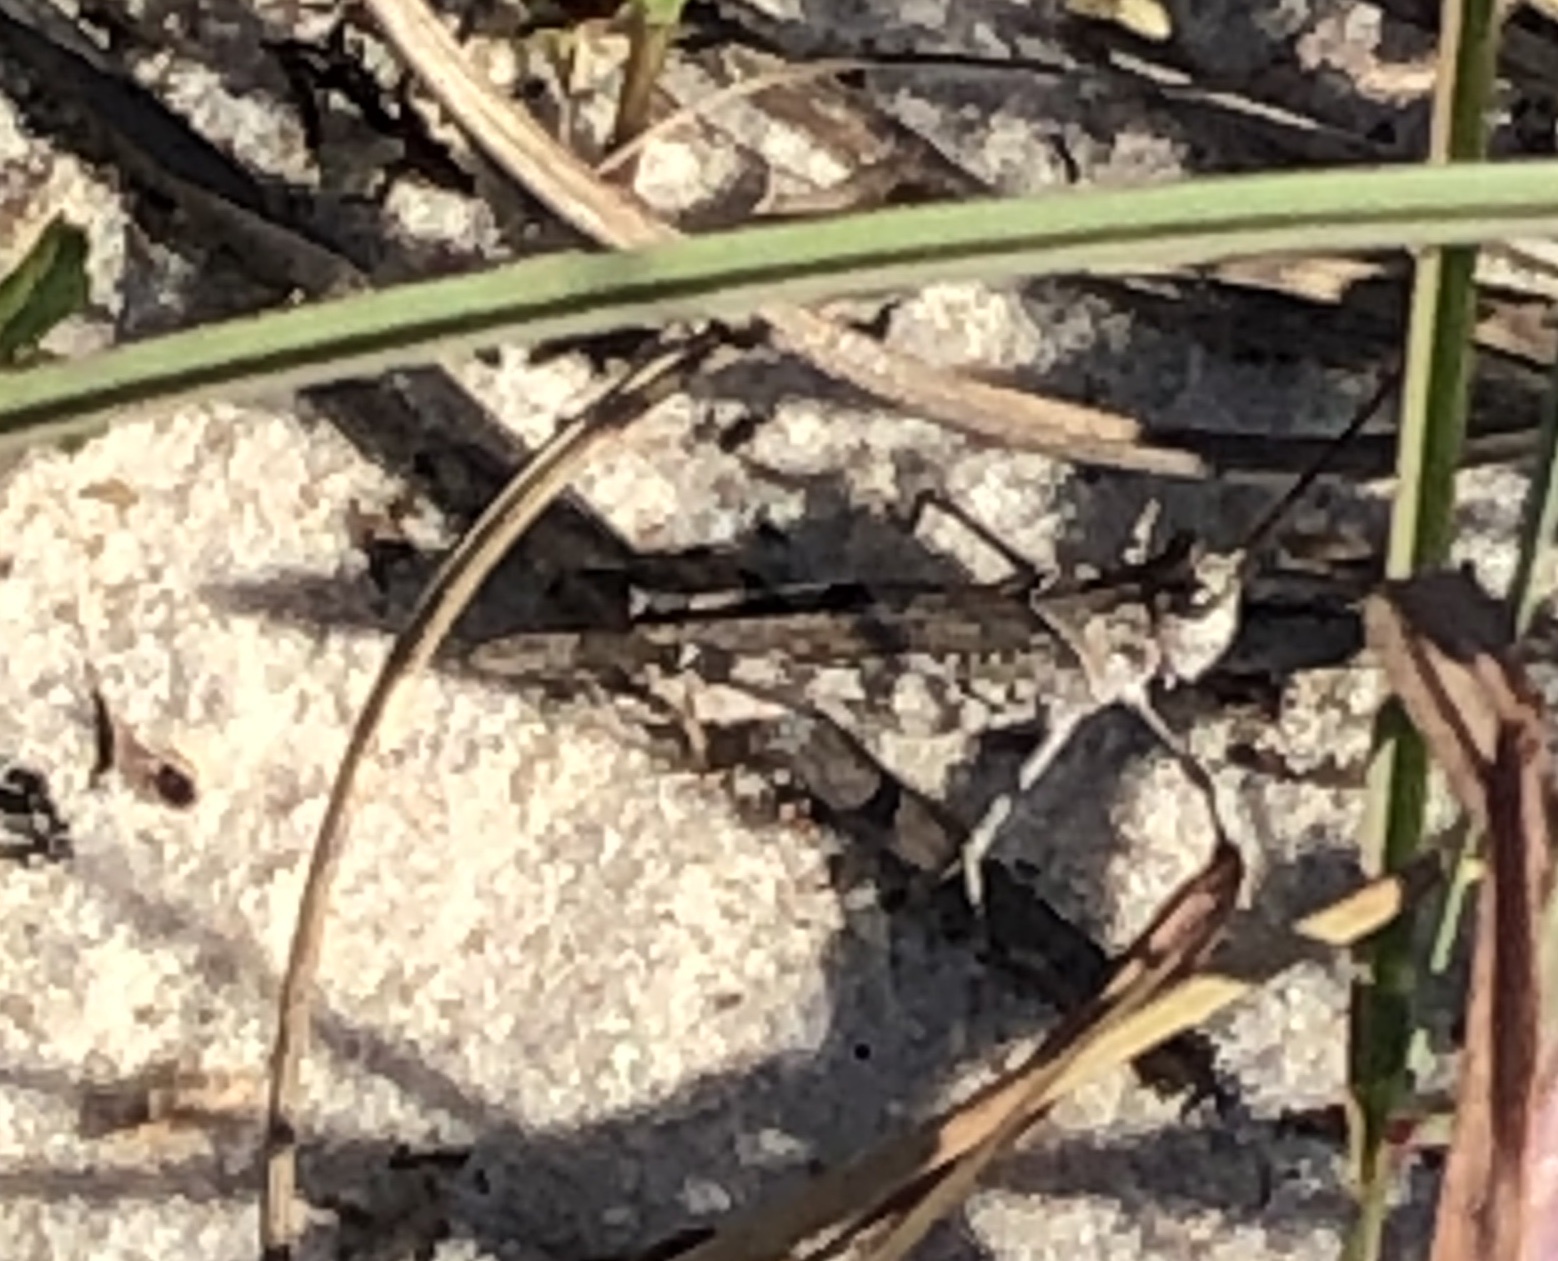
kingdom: Animalia
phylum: Arthropoda
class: Insecta
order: Orthoptera
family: Acrididae
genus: Psinidia
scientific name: Psinidia fenestralis
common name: Long-horned locust
